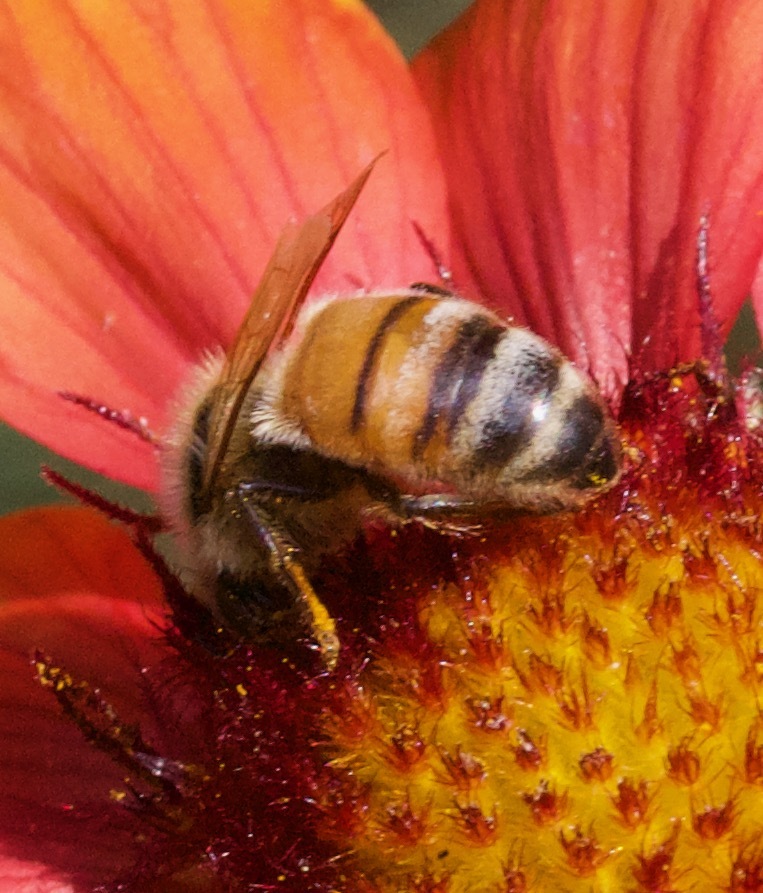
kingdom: Animalia
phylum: Arthropoda
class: Insecta
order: Hymenoptera
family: Apidae
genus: Apis
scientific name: Apis mellifera
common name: Honey bee
